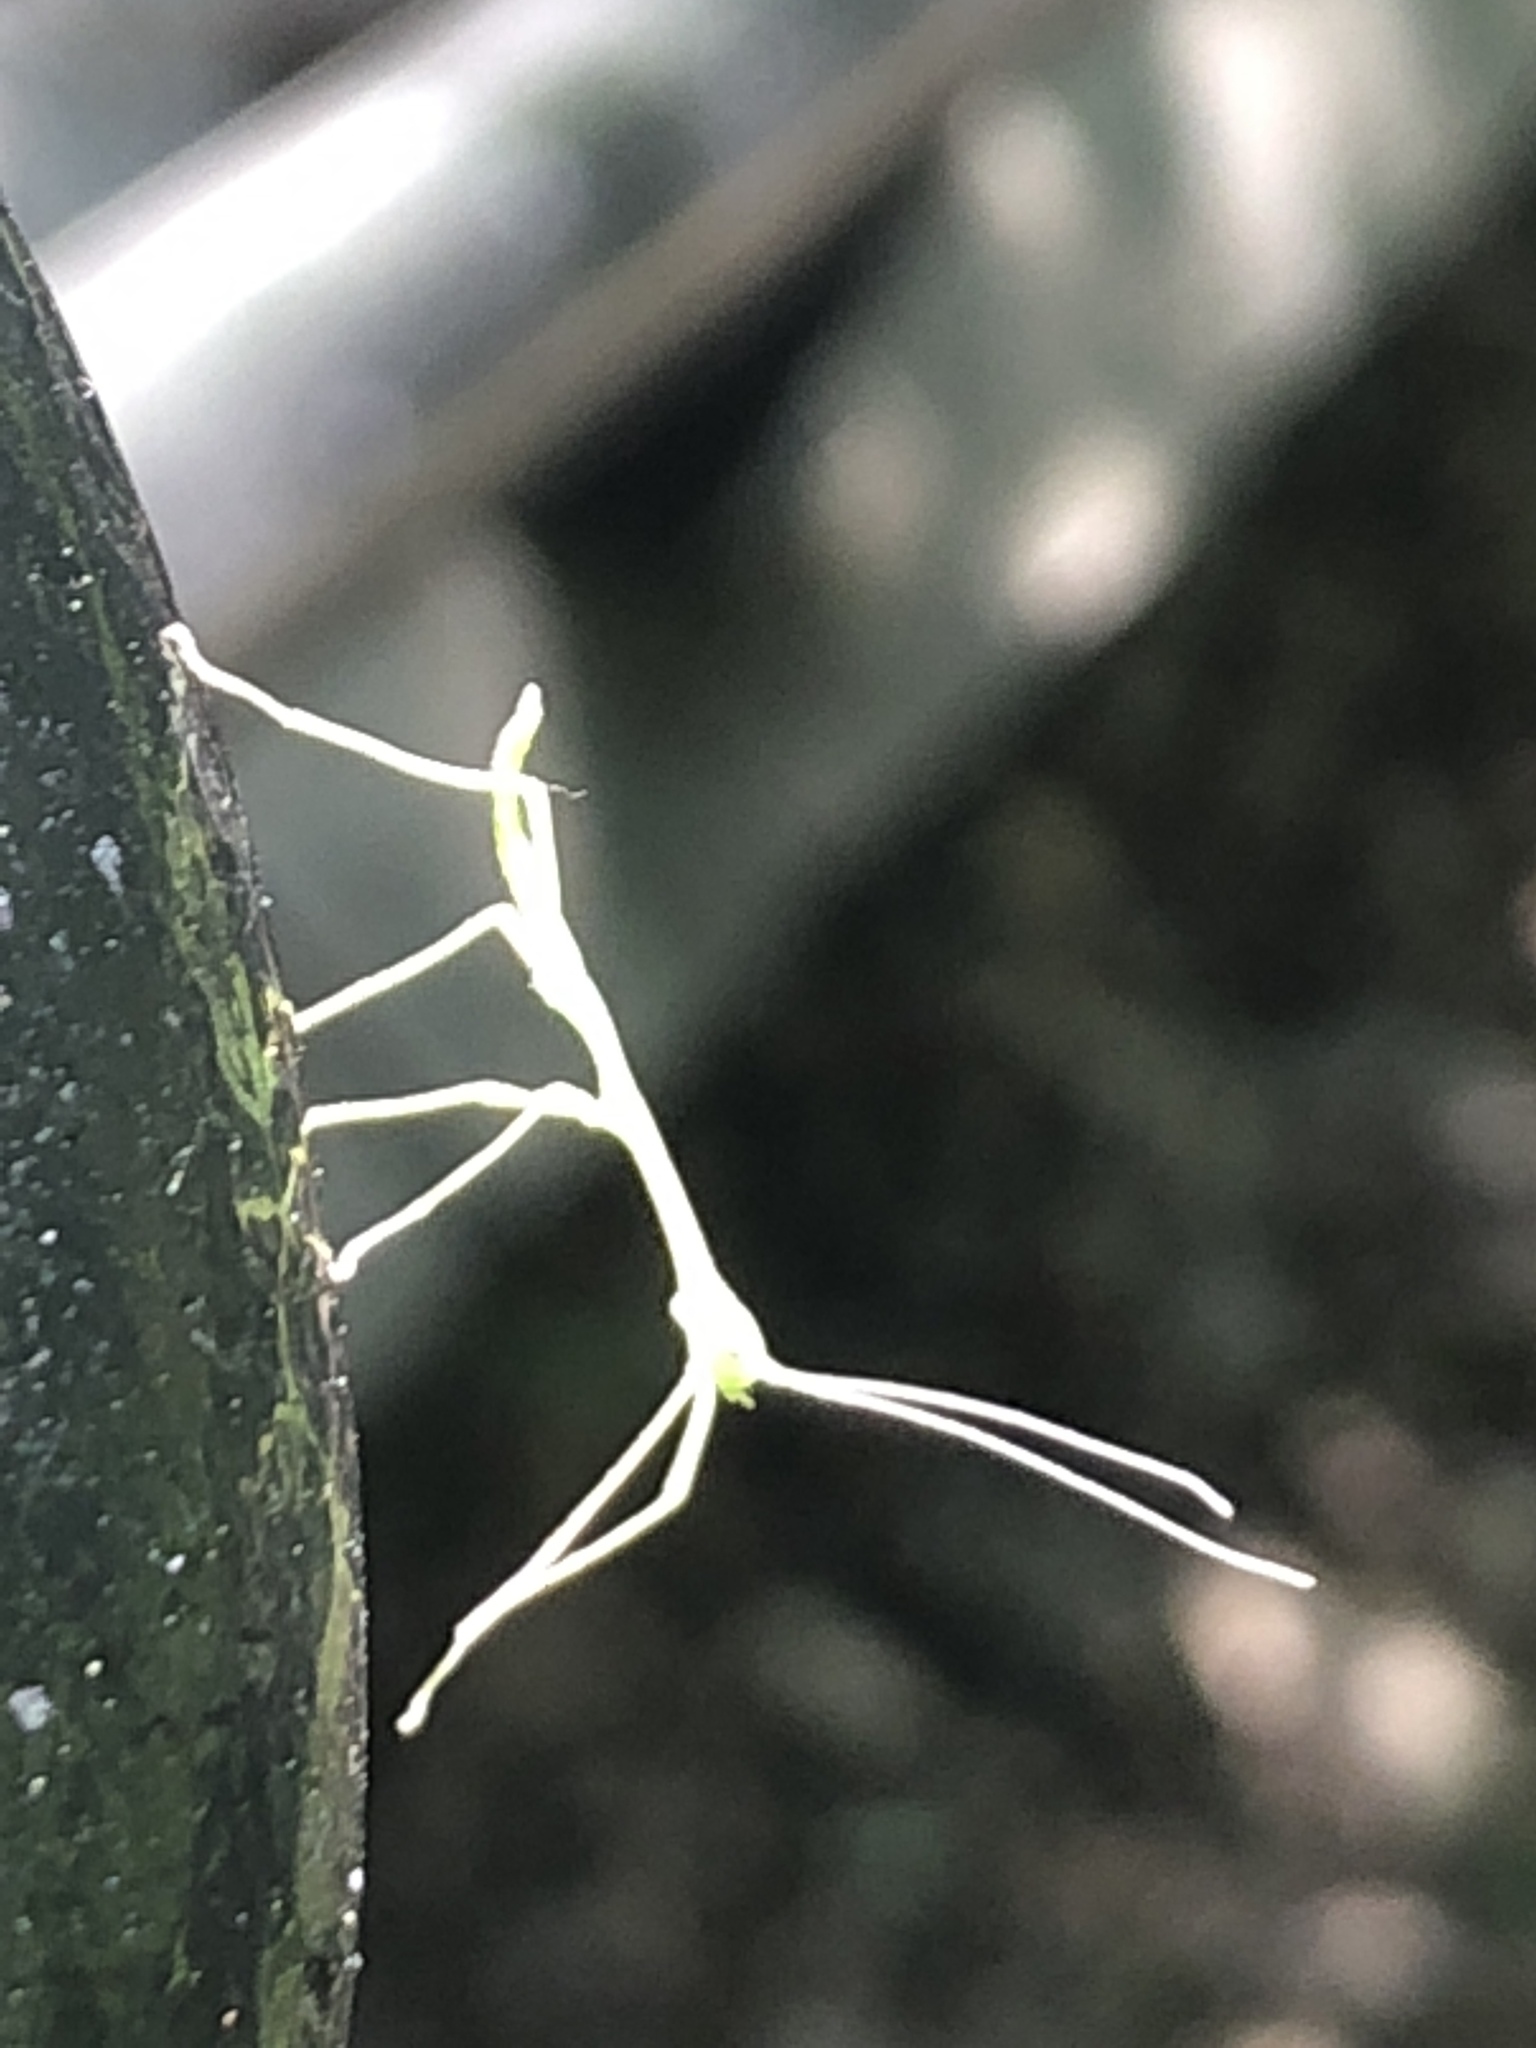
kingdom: Animalia
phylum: Arthropoda
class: Insecta
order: Phasmida
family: Diapheromeridae
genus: Diapheromera
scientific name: Diapheromera femorata
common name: Common american walkingstick
